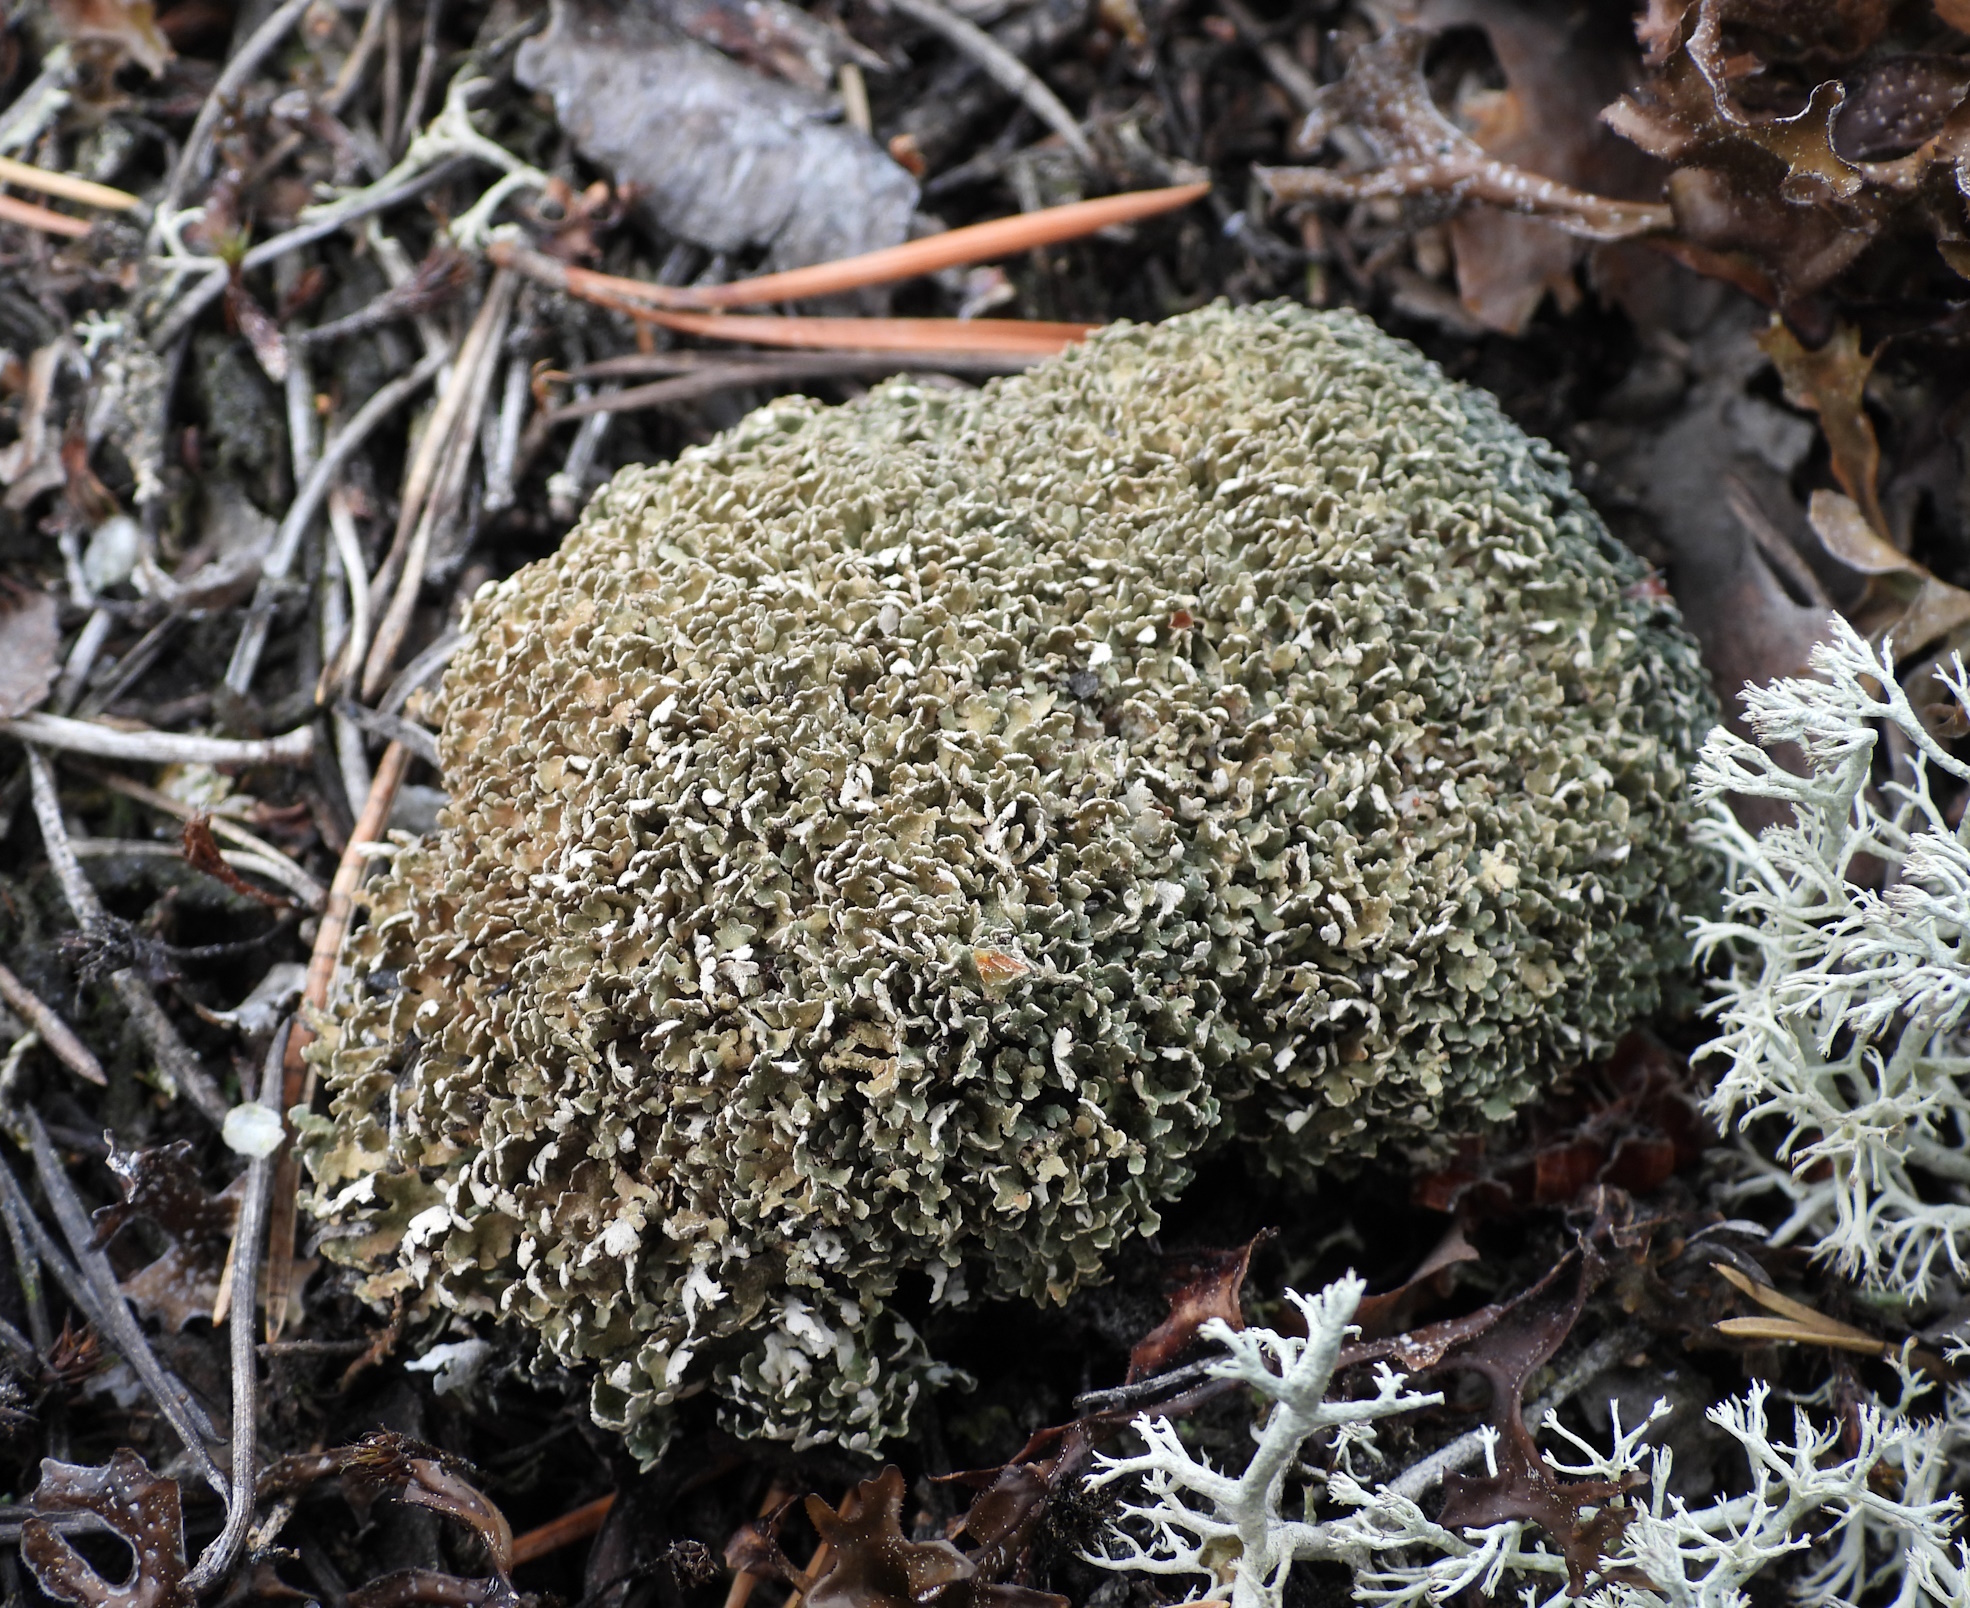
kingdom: Fungi
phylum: Ascomycota
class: Lecanoromycetes
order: Lecanorales
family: Cladoniaceae
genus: Cladonia
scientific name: Cladonia strepsilis
